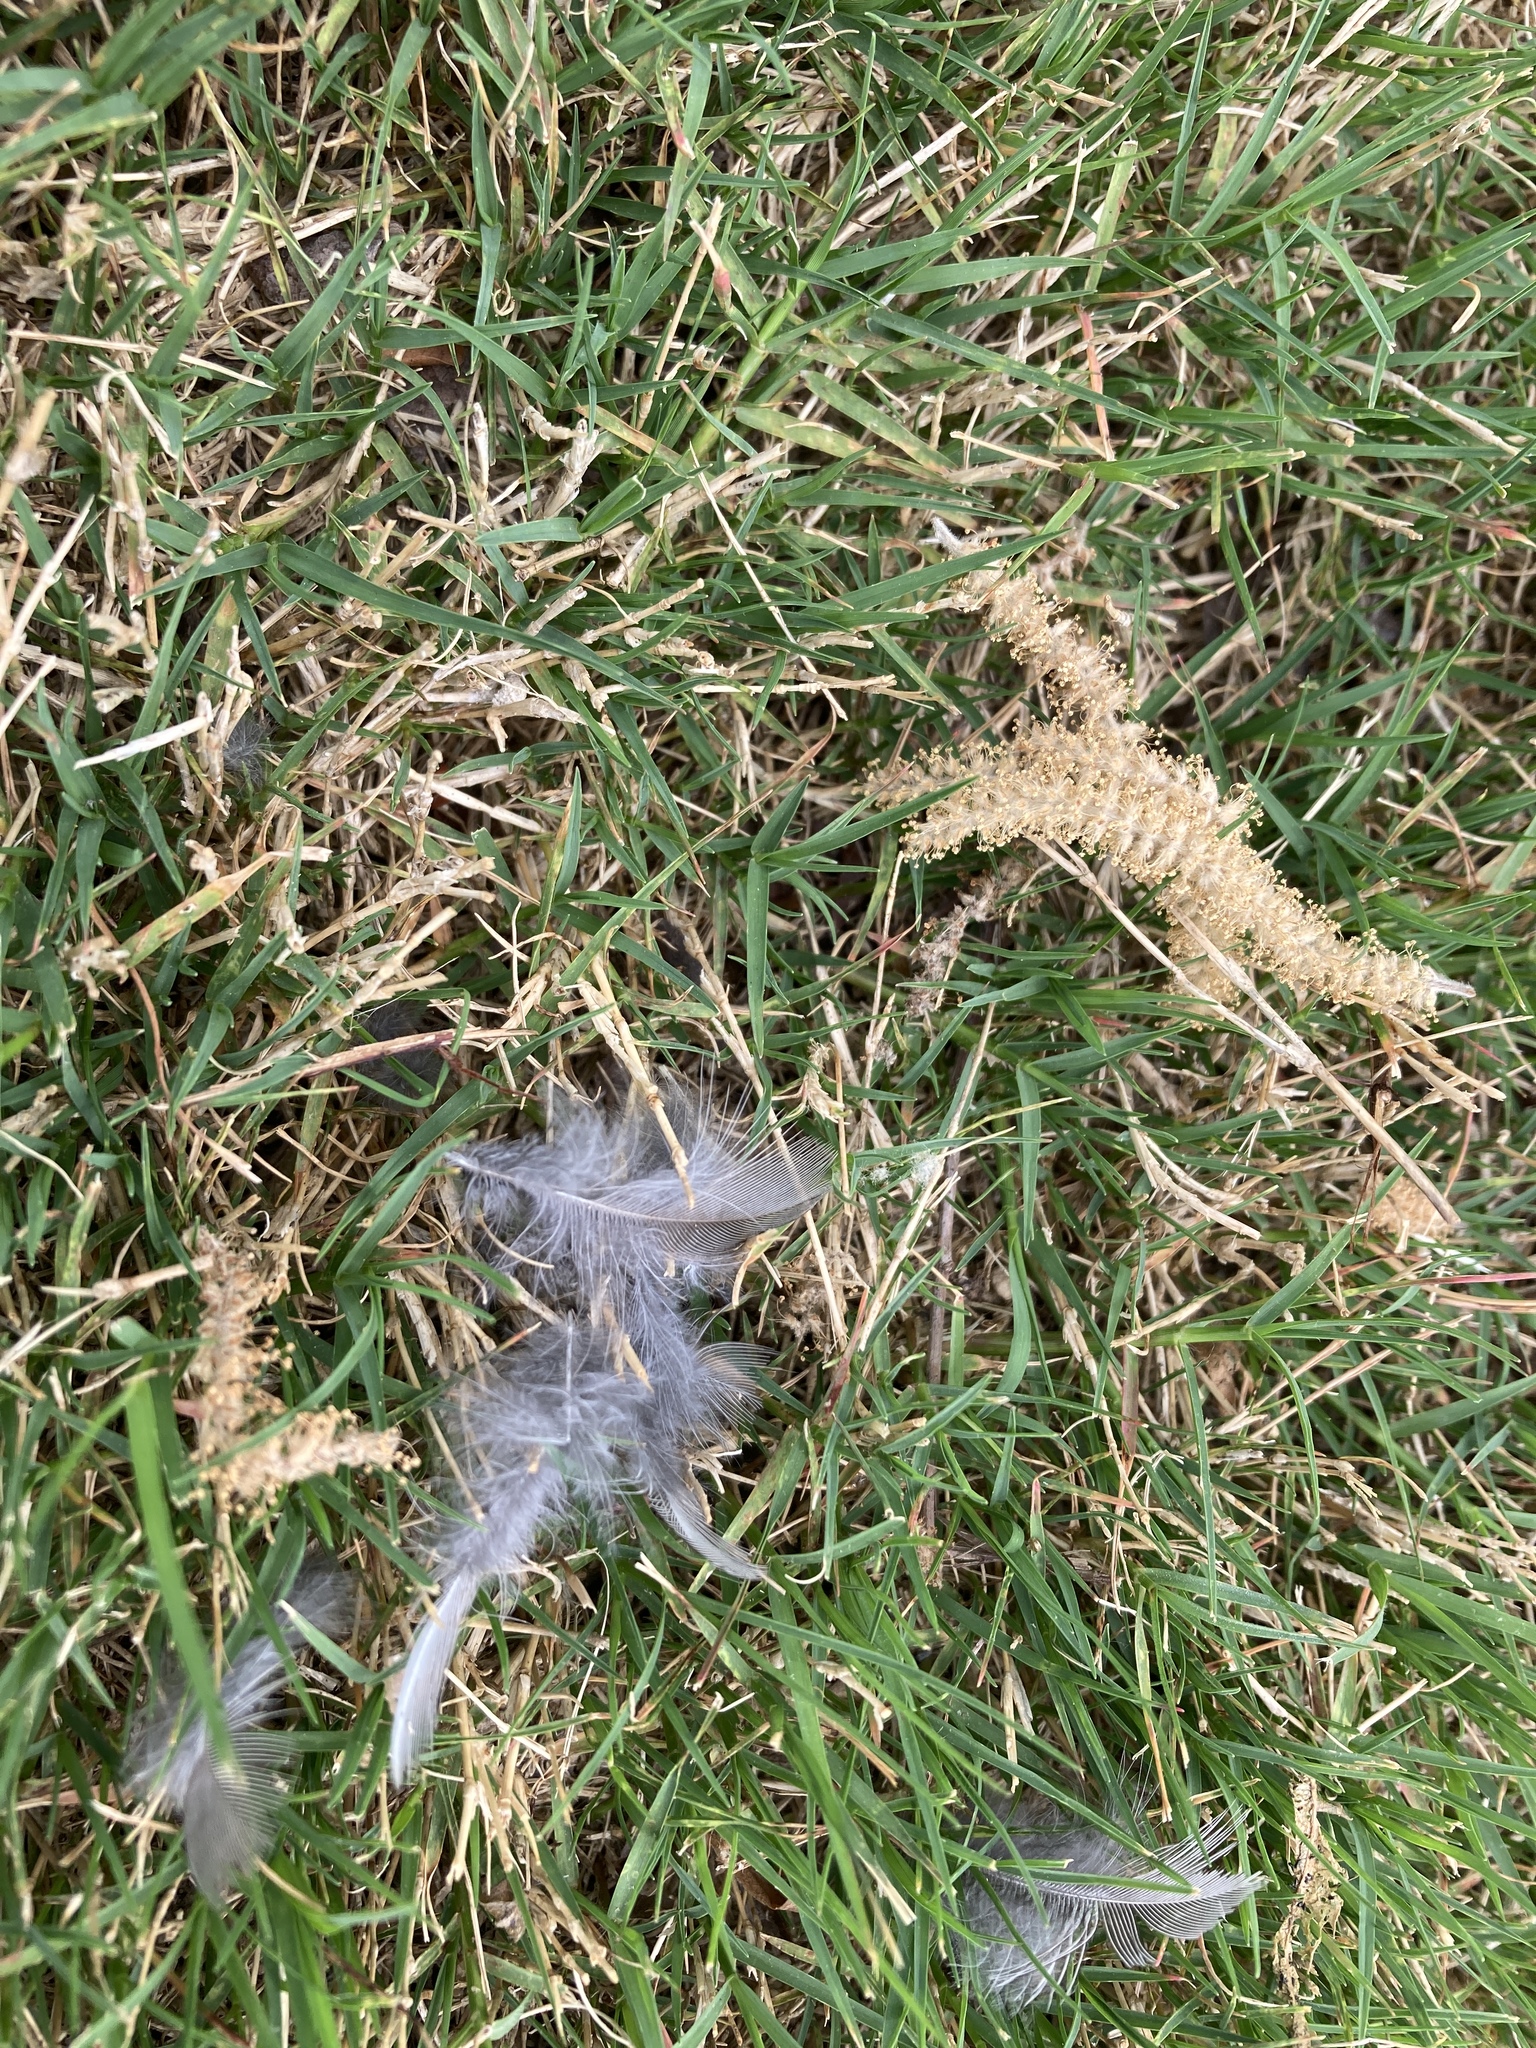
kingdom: Animalia
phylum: Chordata
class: Aves
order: Passeriformes
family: Turdidae
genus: Turdus
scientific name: Turdus migratorius
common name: American robin
